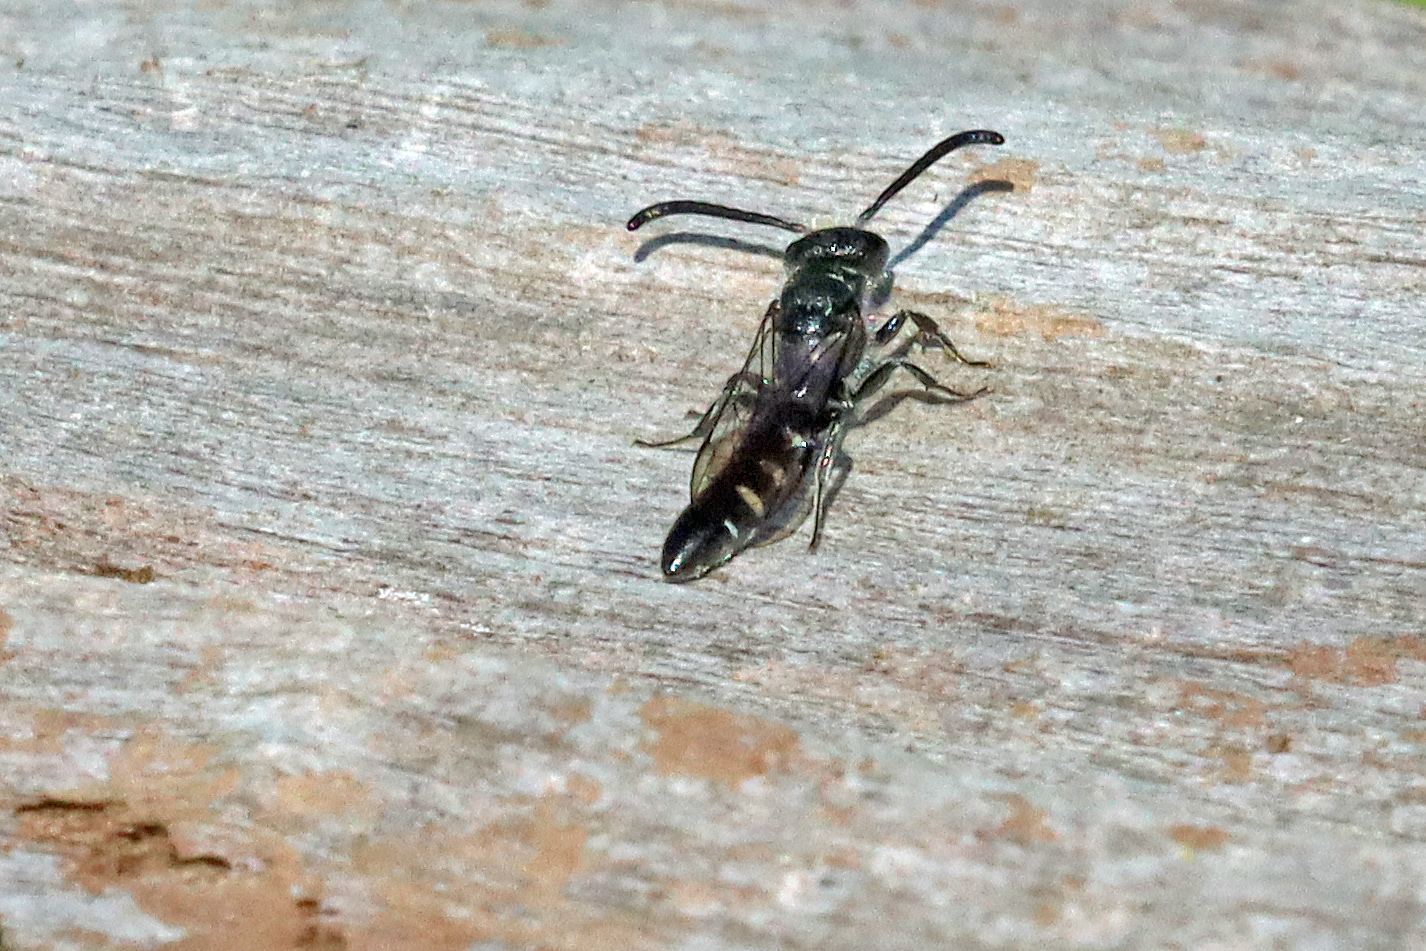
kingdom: Animalia
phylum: Arthropoda
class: Insecta
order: Hymenoptera
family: Sapygidae
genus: Sapyga
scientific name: Sapyga quinquepunctata
